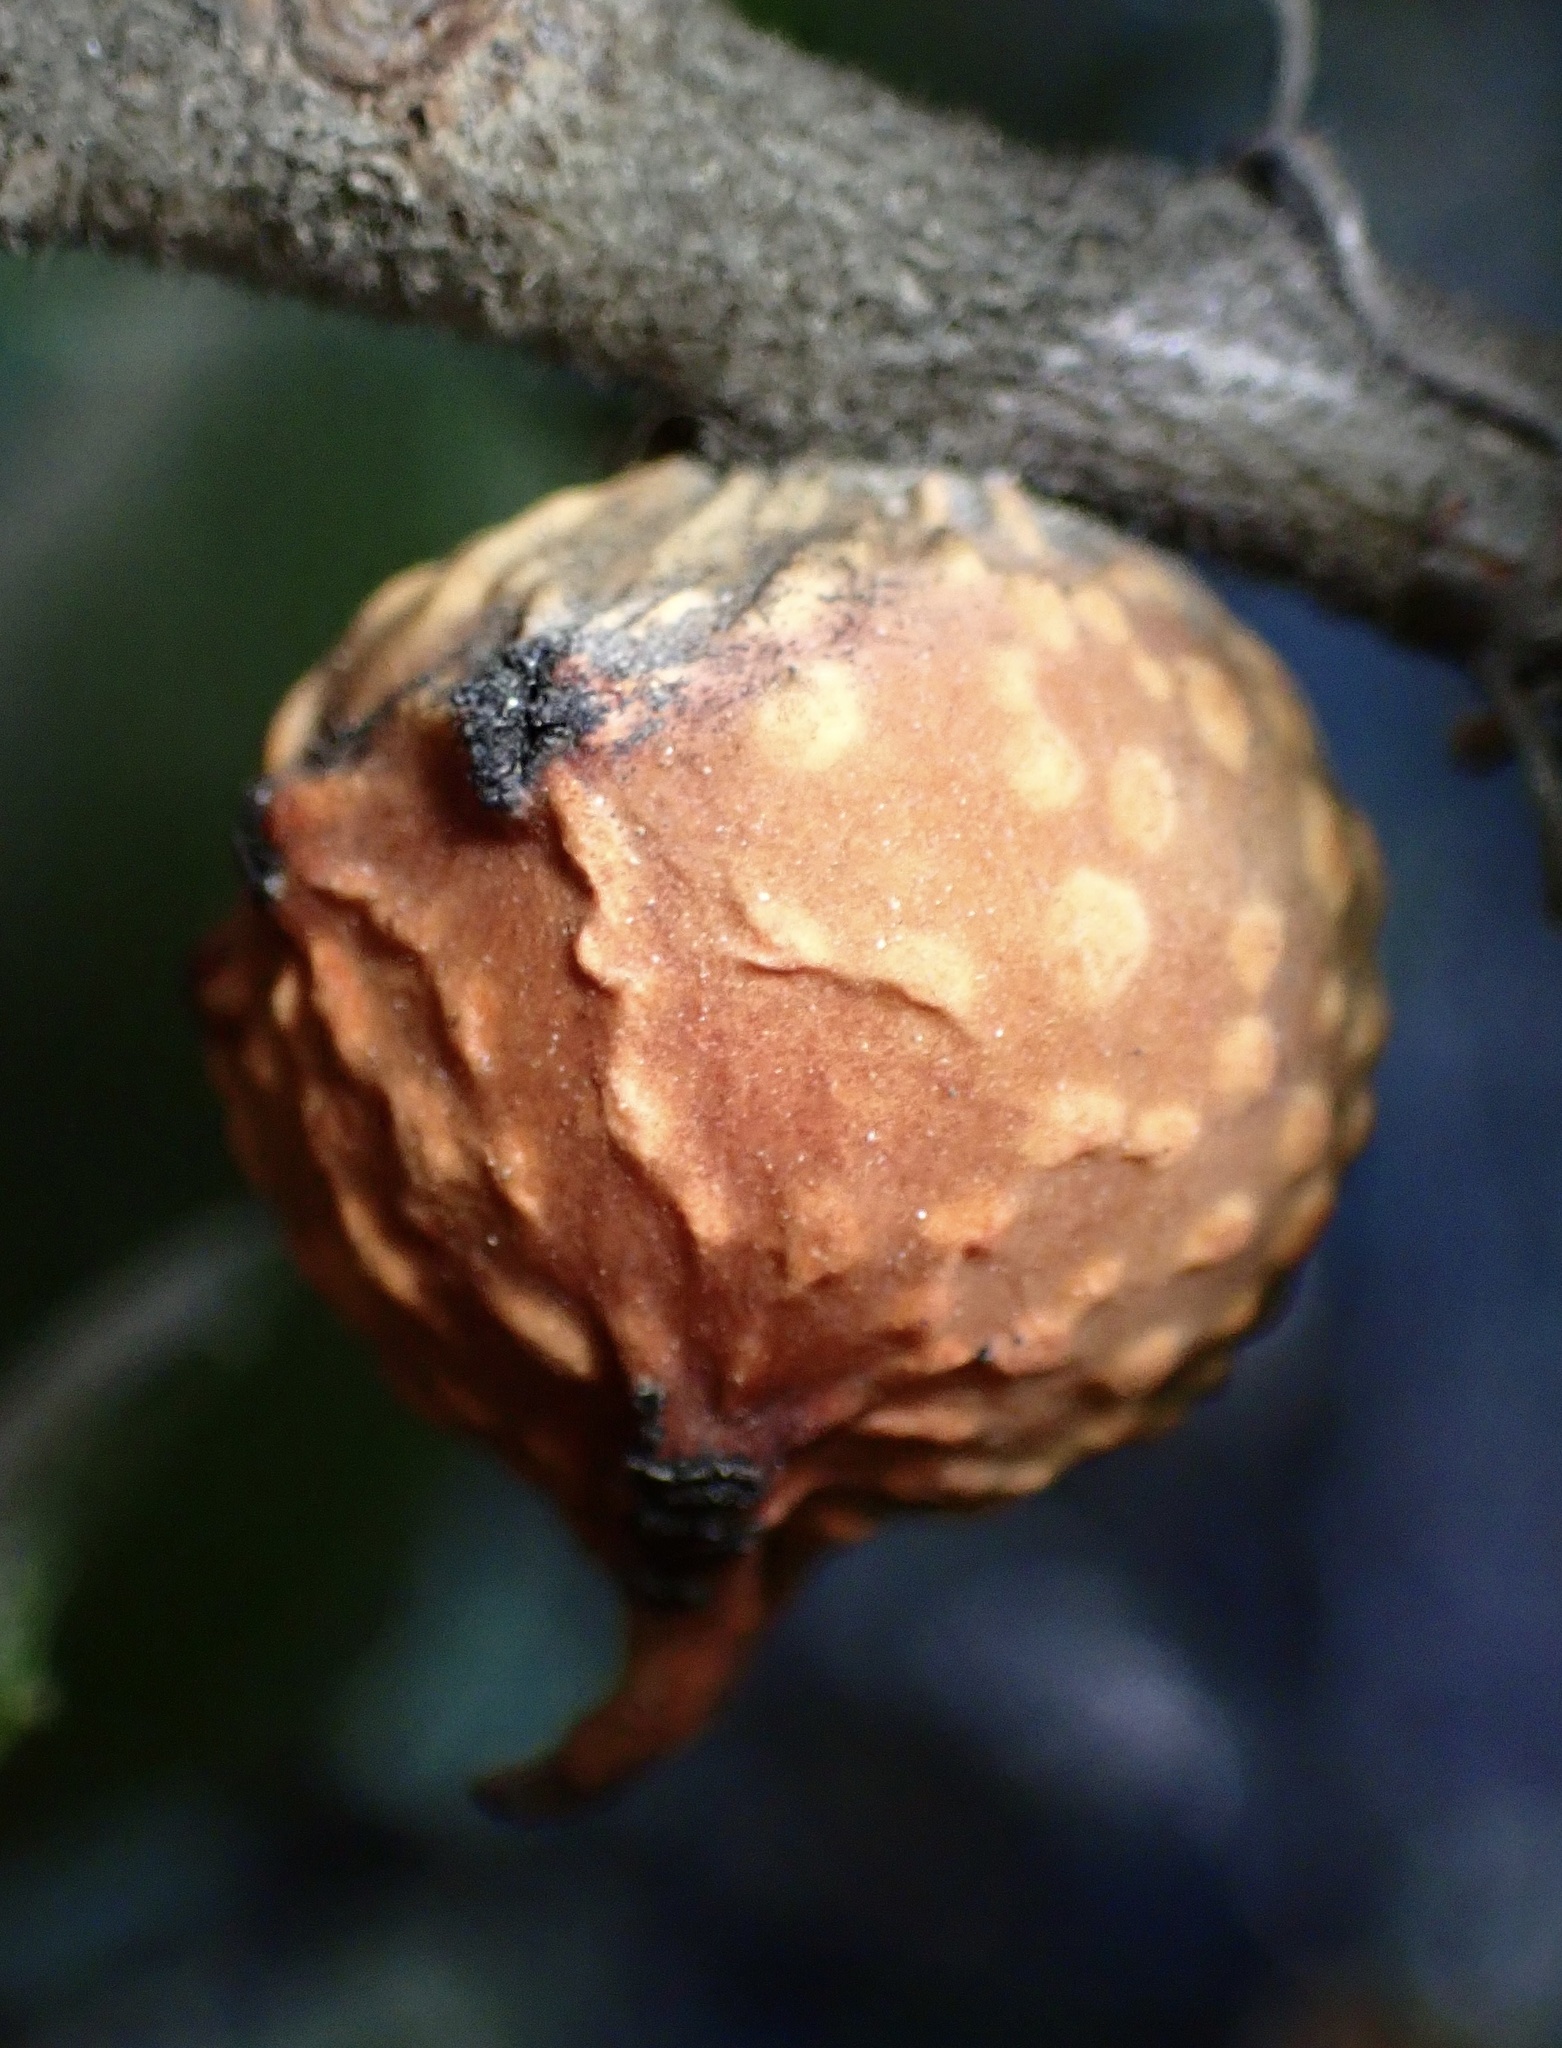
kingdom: Animalia
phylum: Arthropoda
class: Insecta
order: Hymenoptera
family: Cynipidae
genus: Burnettweldia
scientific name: Burnettweldia
